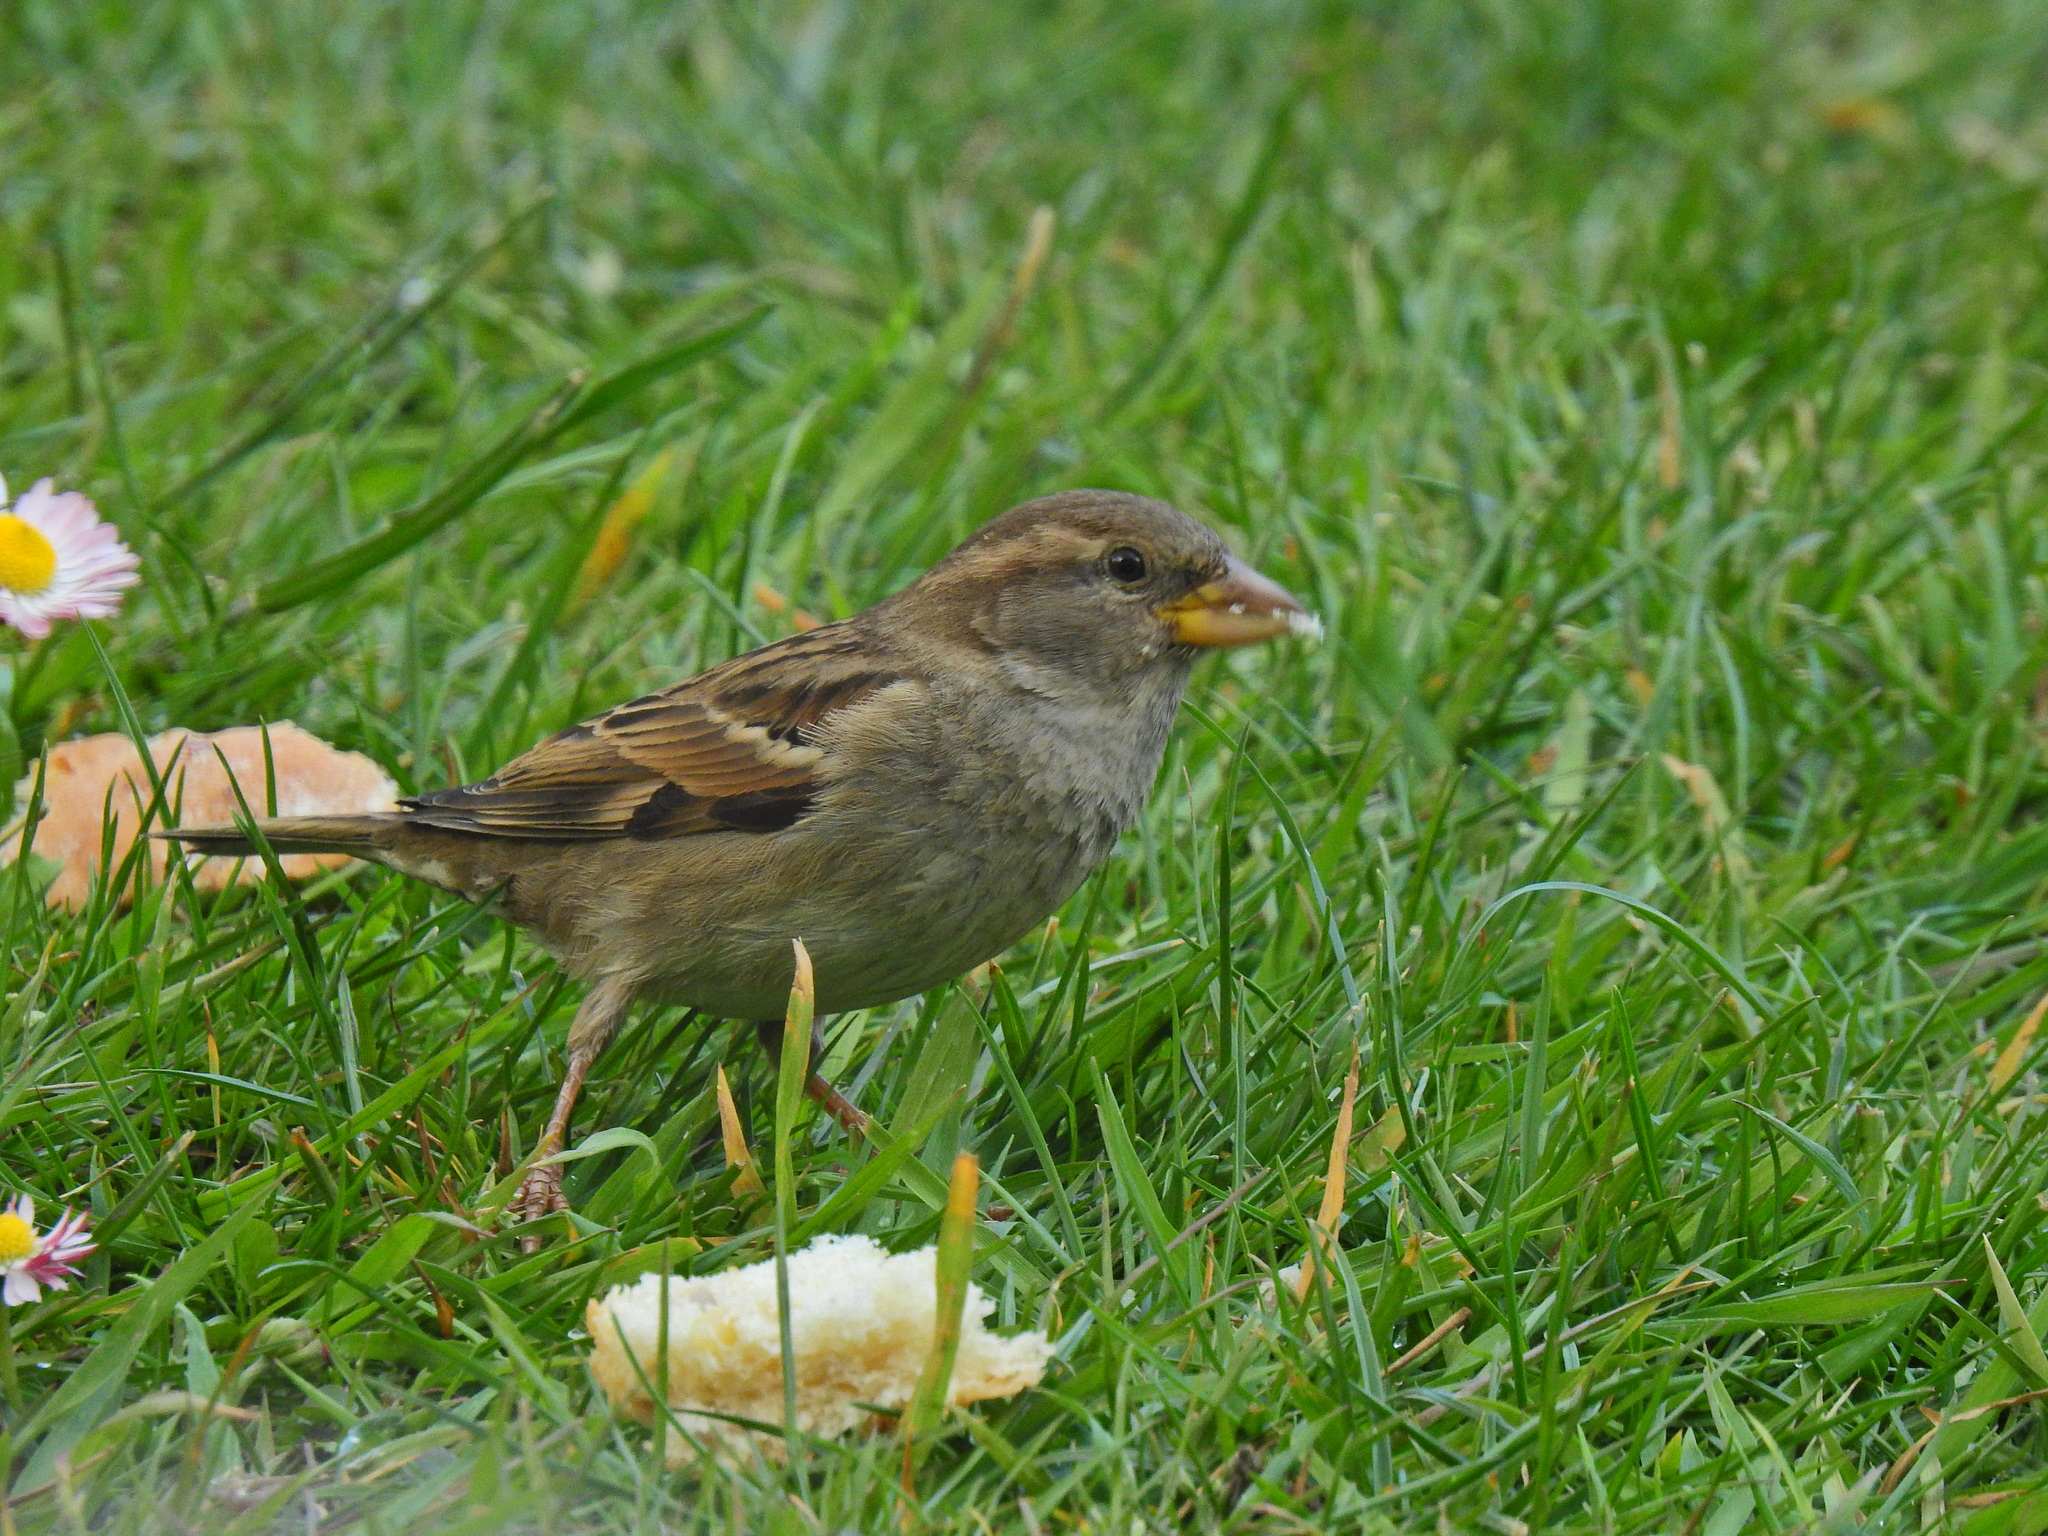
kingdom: Animalia
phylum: Chordata
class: Aves
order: Passeriformes
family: Passeridae
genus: Passer
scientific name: Passer domesticus
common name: House sparrow
